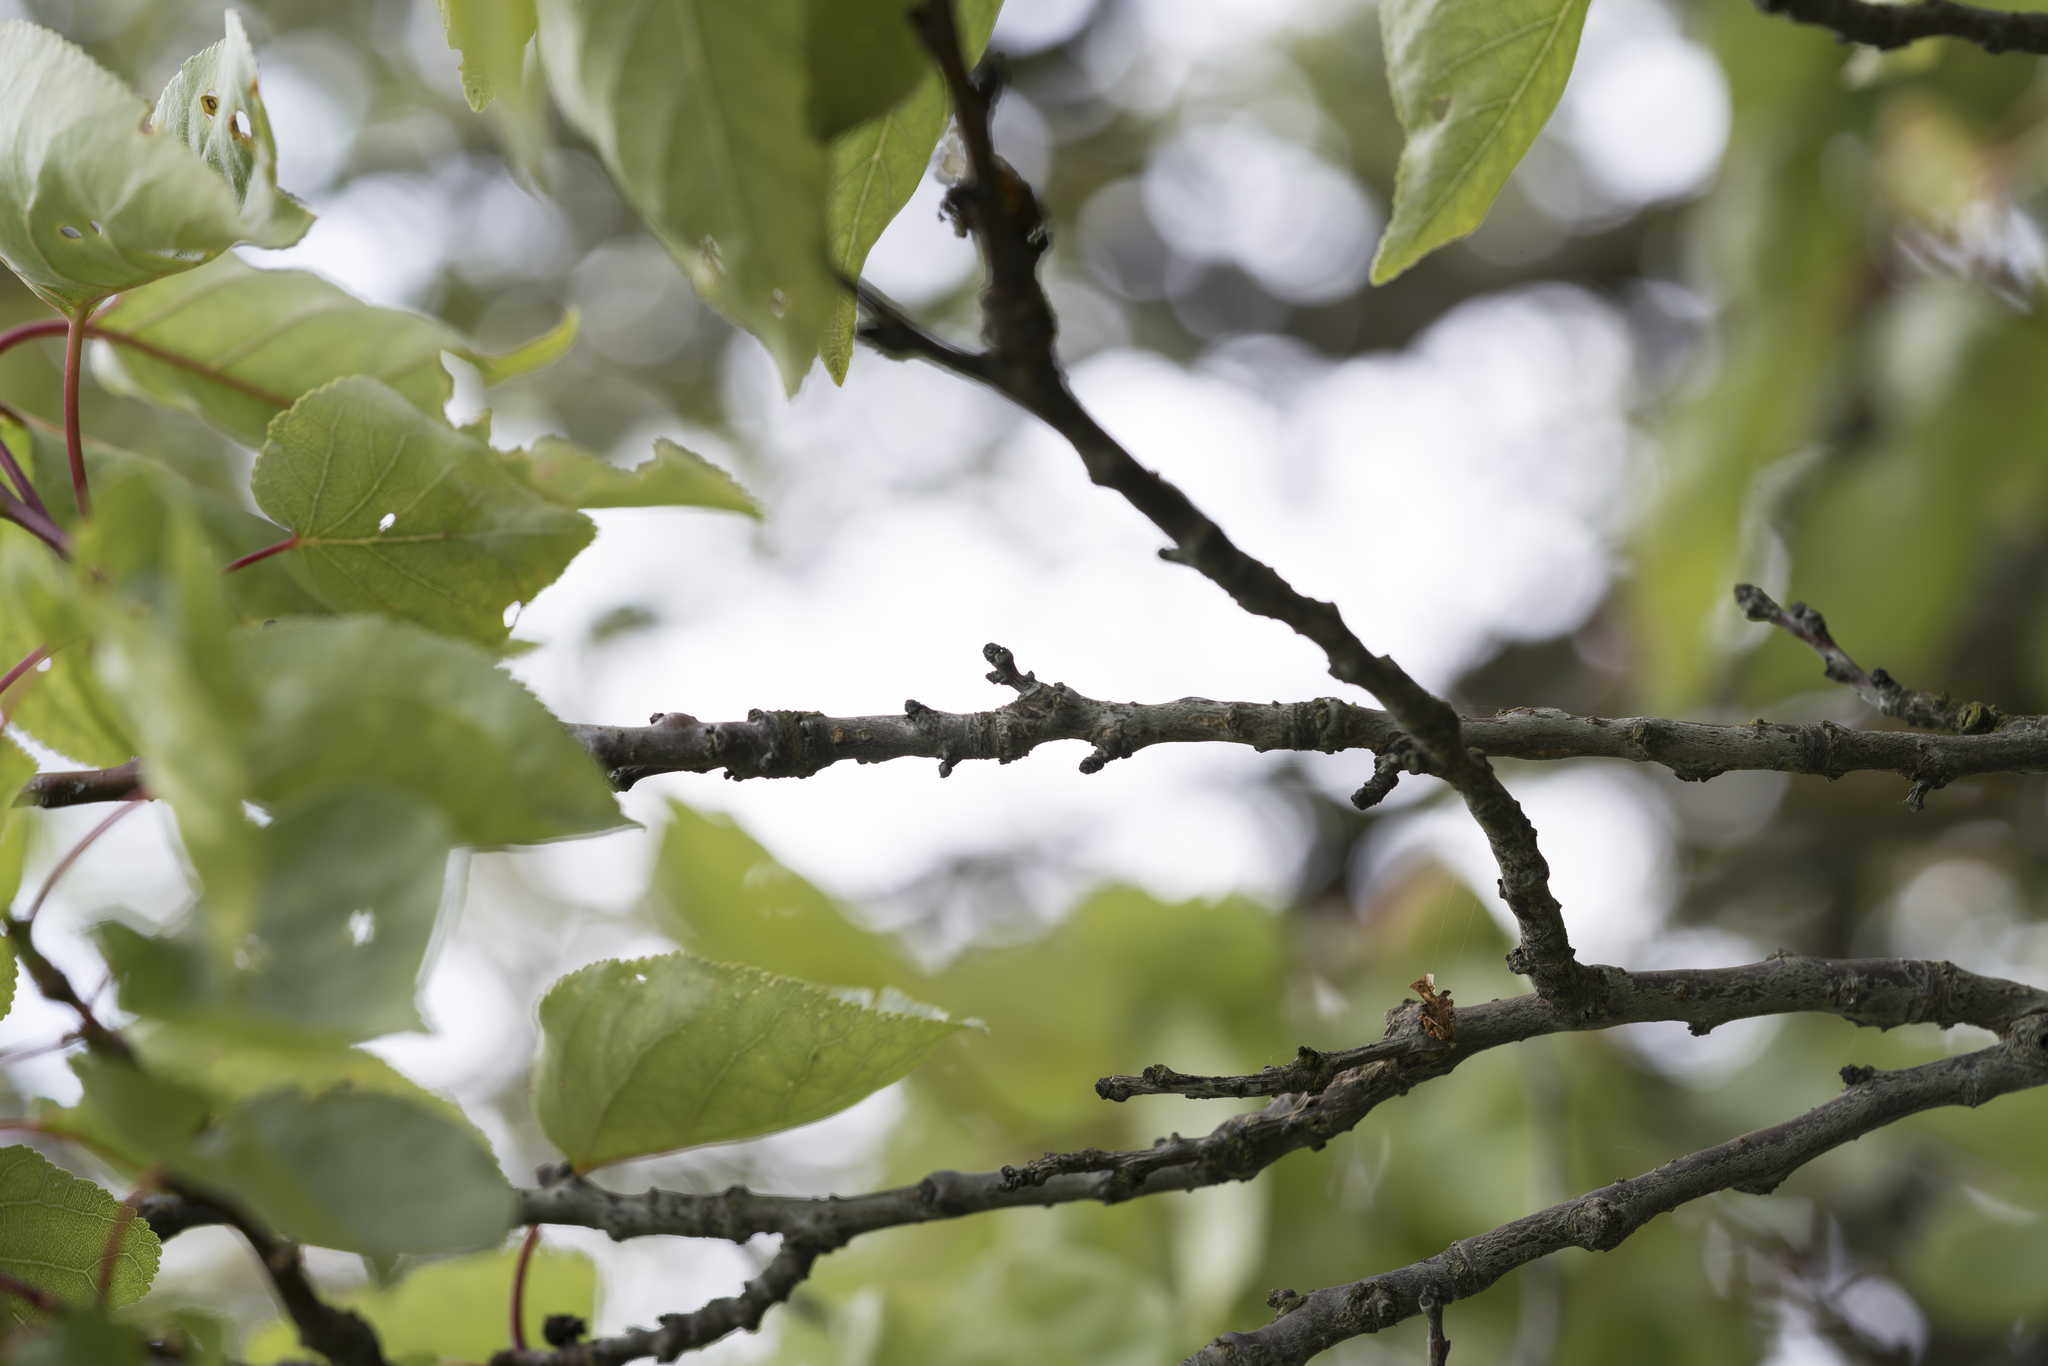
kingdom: Plantae
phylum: Tracheophyta
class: Magnoliopsida
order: Rosales
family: Rosaceae
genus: Prunus
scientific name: Prunus armeniaca
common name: Apricot
